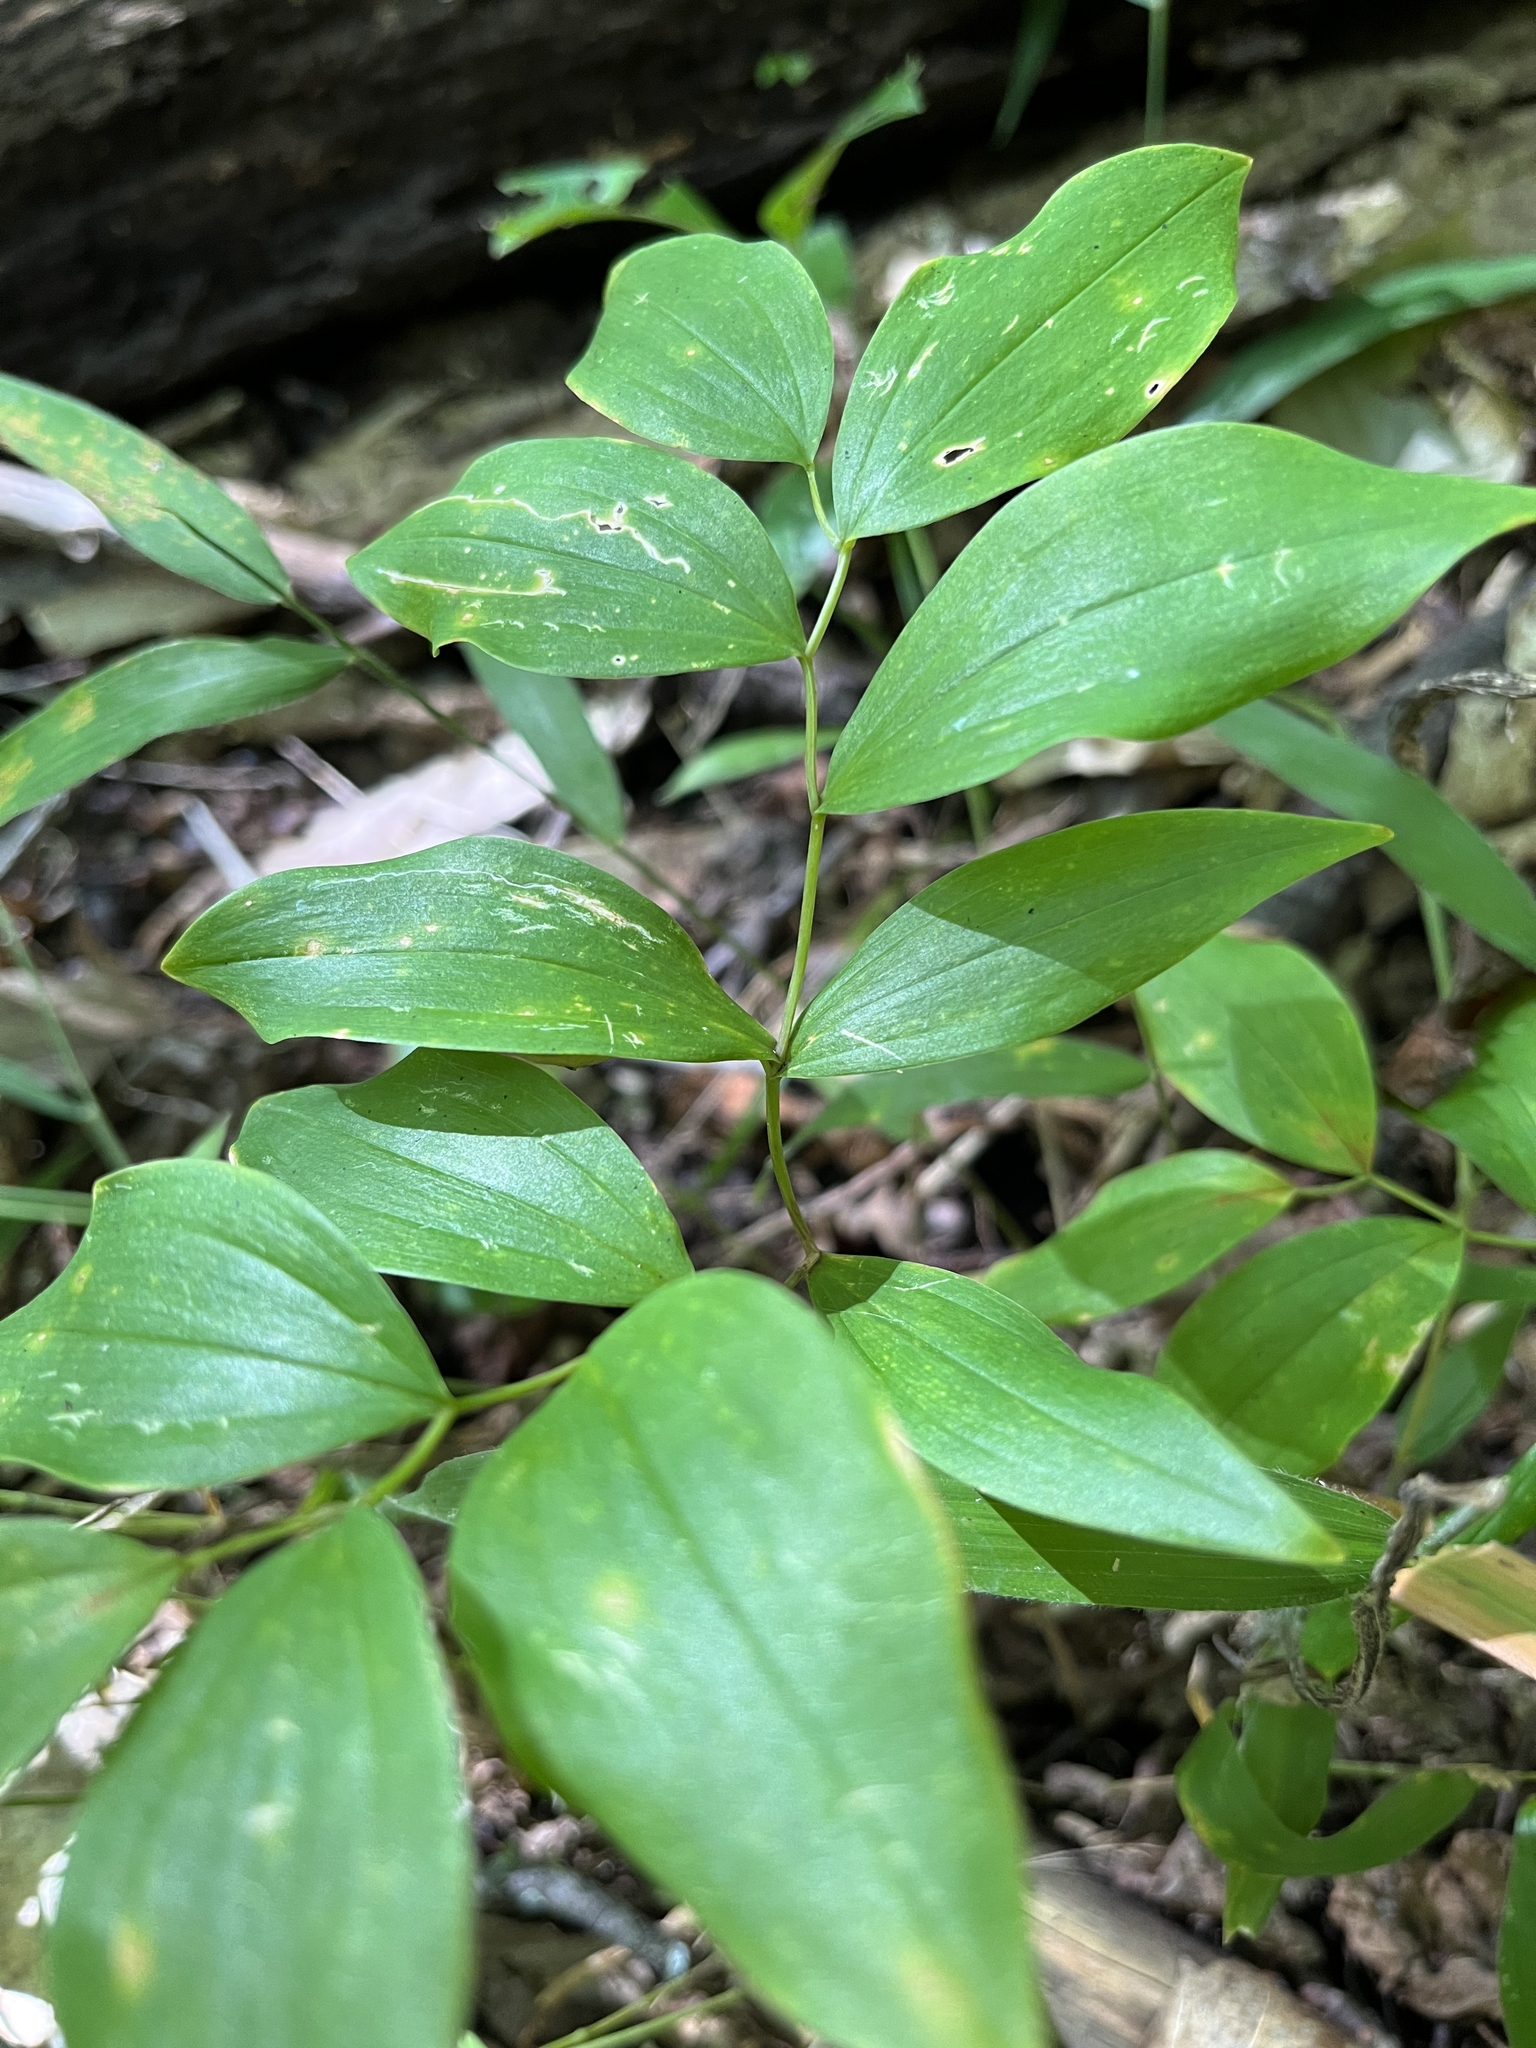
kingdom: Plantae
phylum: Tracheophyta
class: Liliopsida
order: Liliales
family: Colchicaceae
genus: Uvularia
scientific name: Uvularia sessilifolia
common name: Straw-lily
